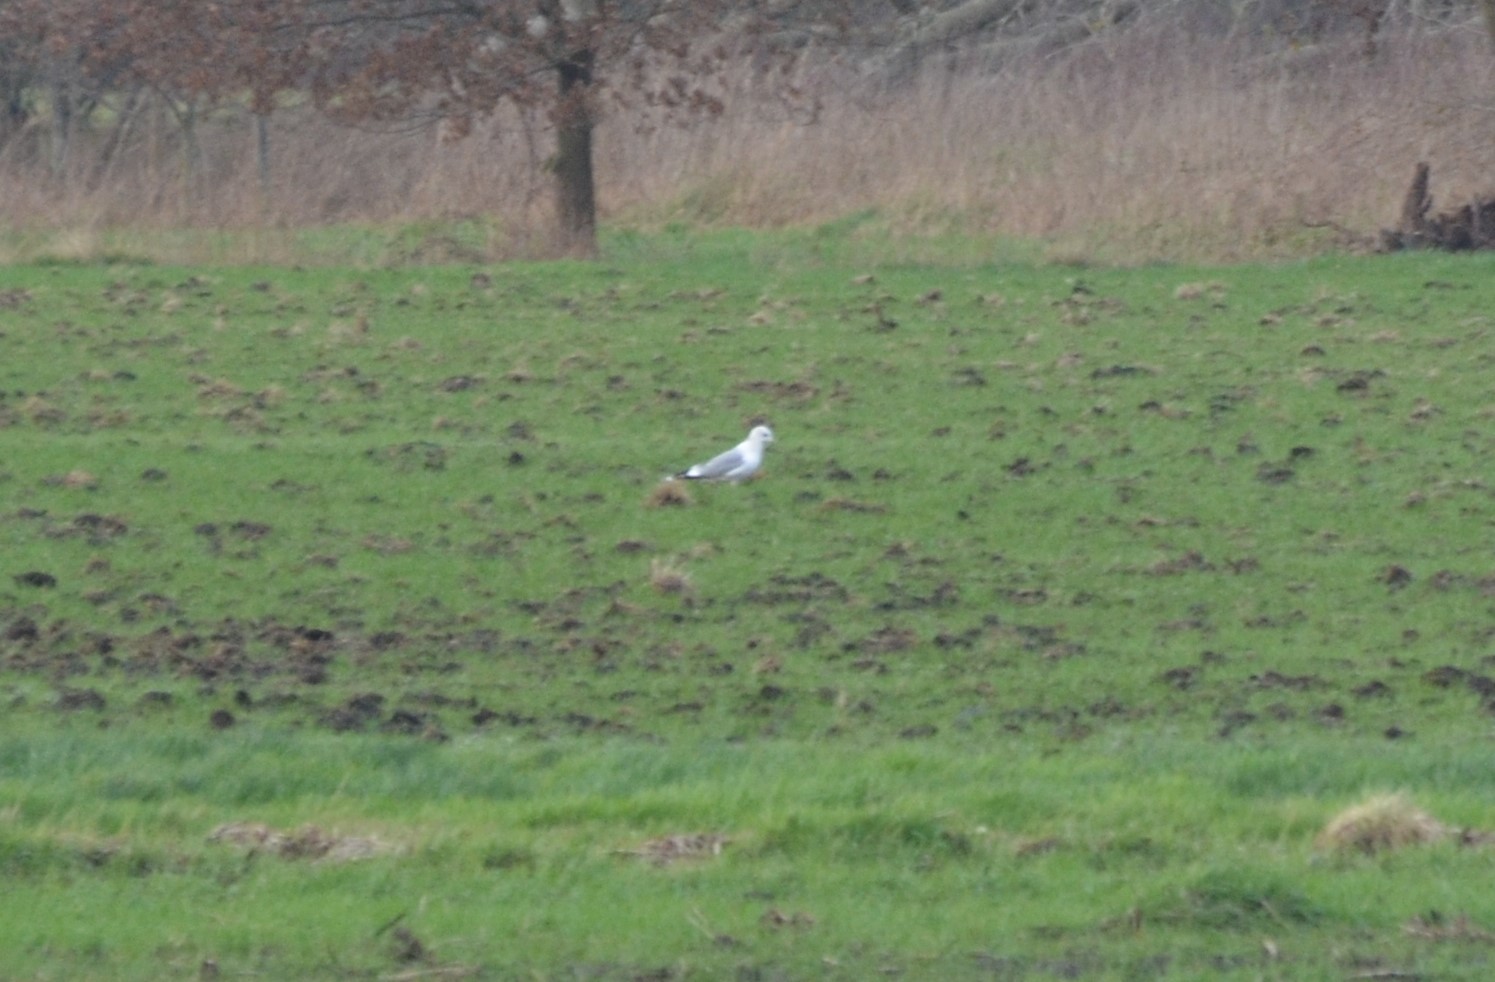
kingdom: Animalia
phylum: Chordata
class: Aves
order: Charadriiformes
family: Laridae
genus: Larus
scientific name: Larus canus
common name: Mew gull
